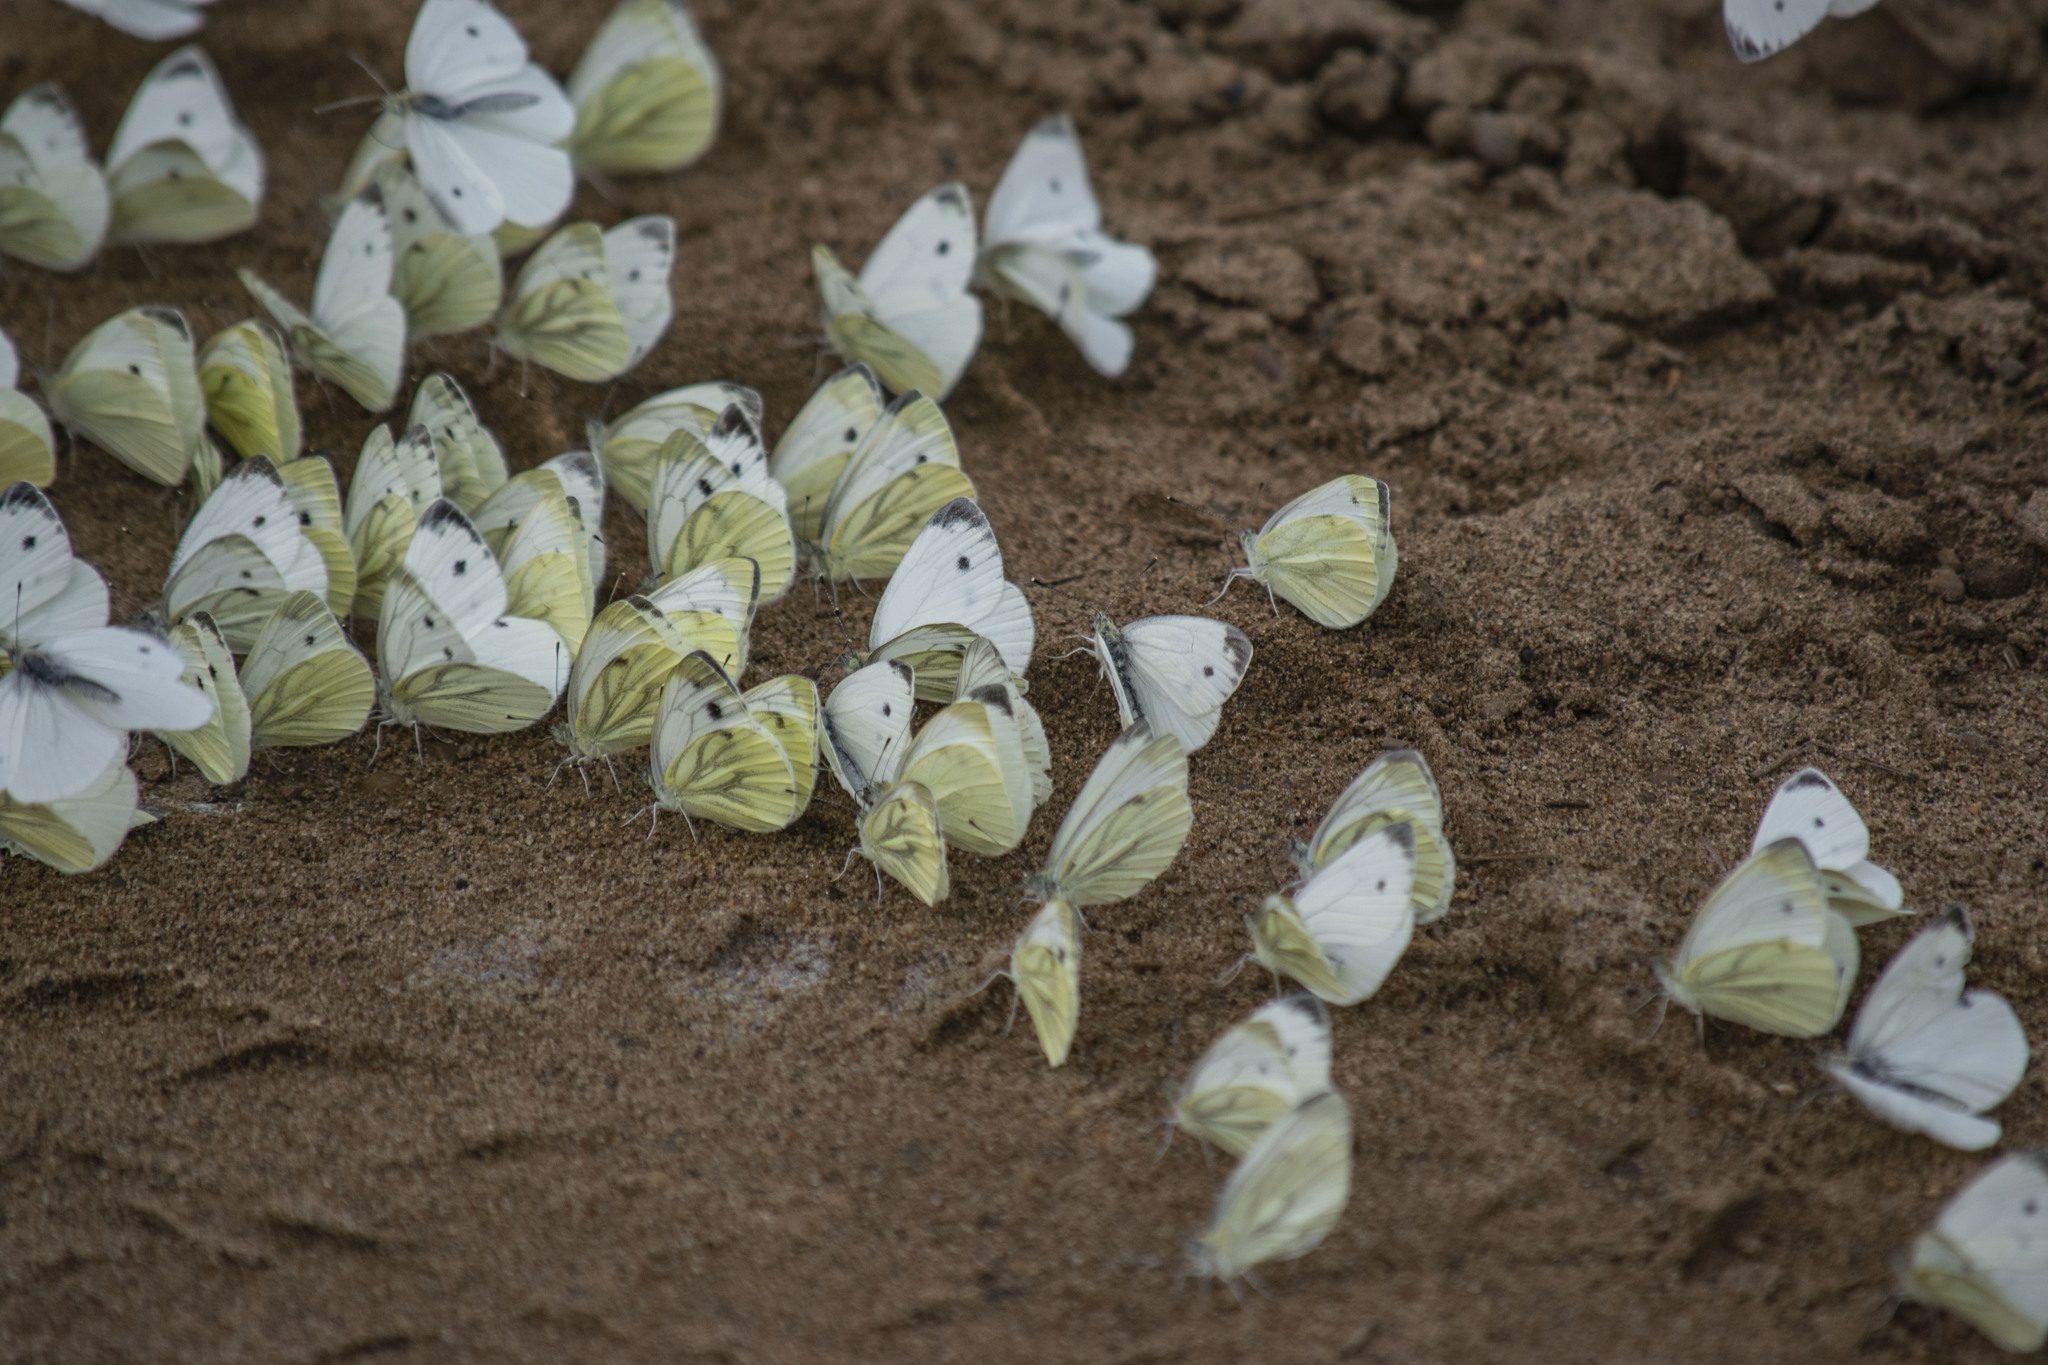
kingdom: Animalia
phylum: Arthropoda
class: Insecta
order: Lepidoptera
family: Pieridae
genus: Pieris
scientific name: Pieris napi
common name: Green-veined white
